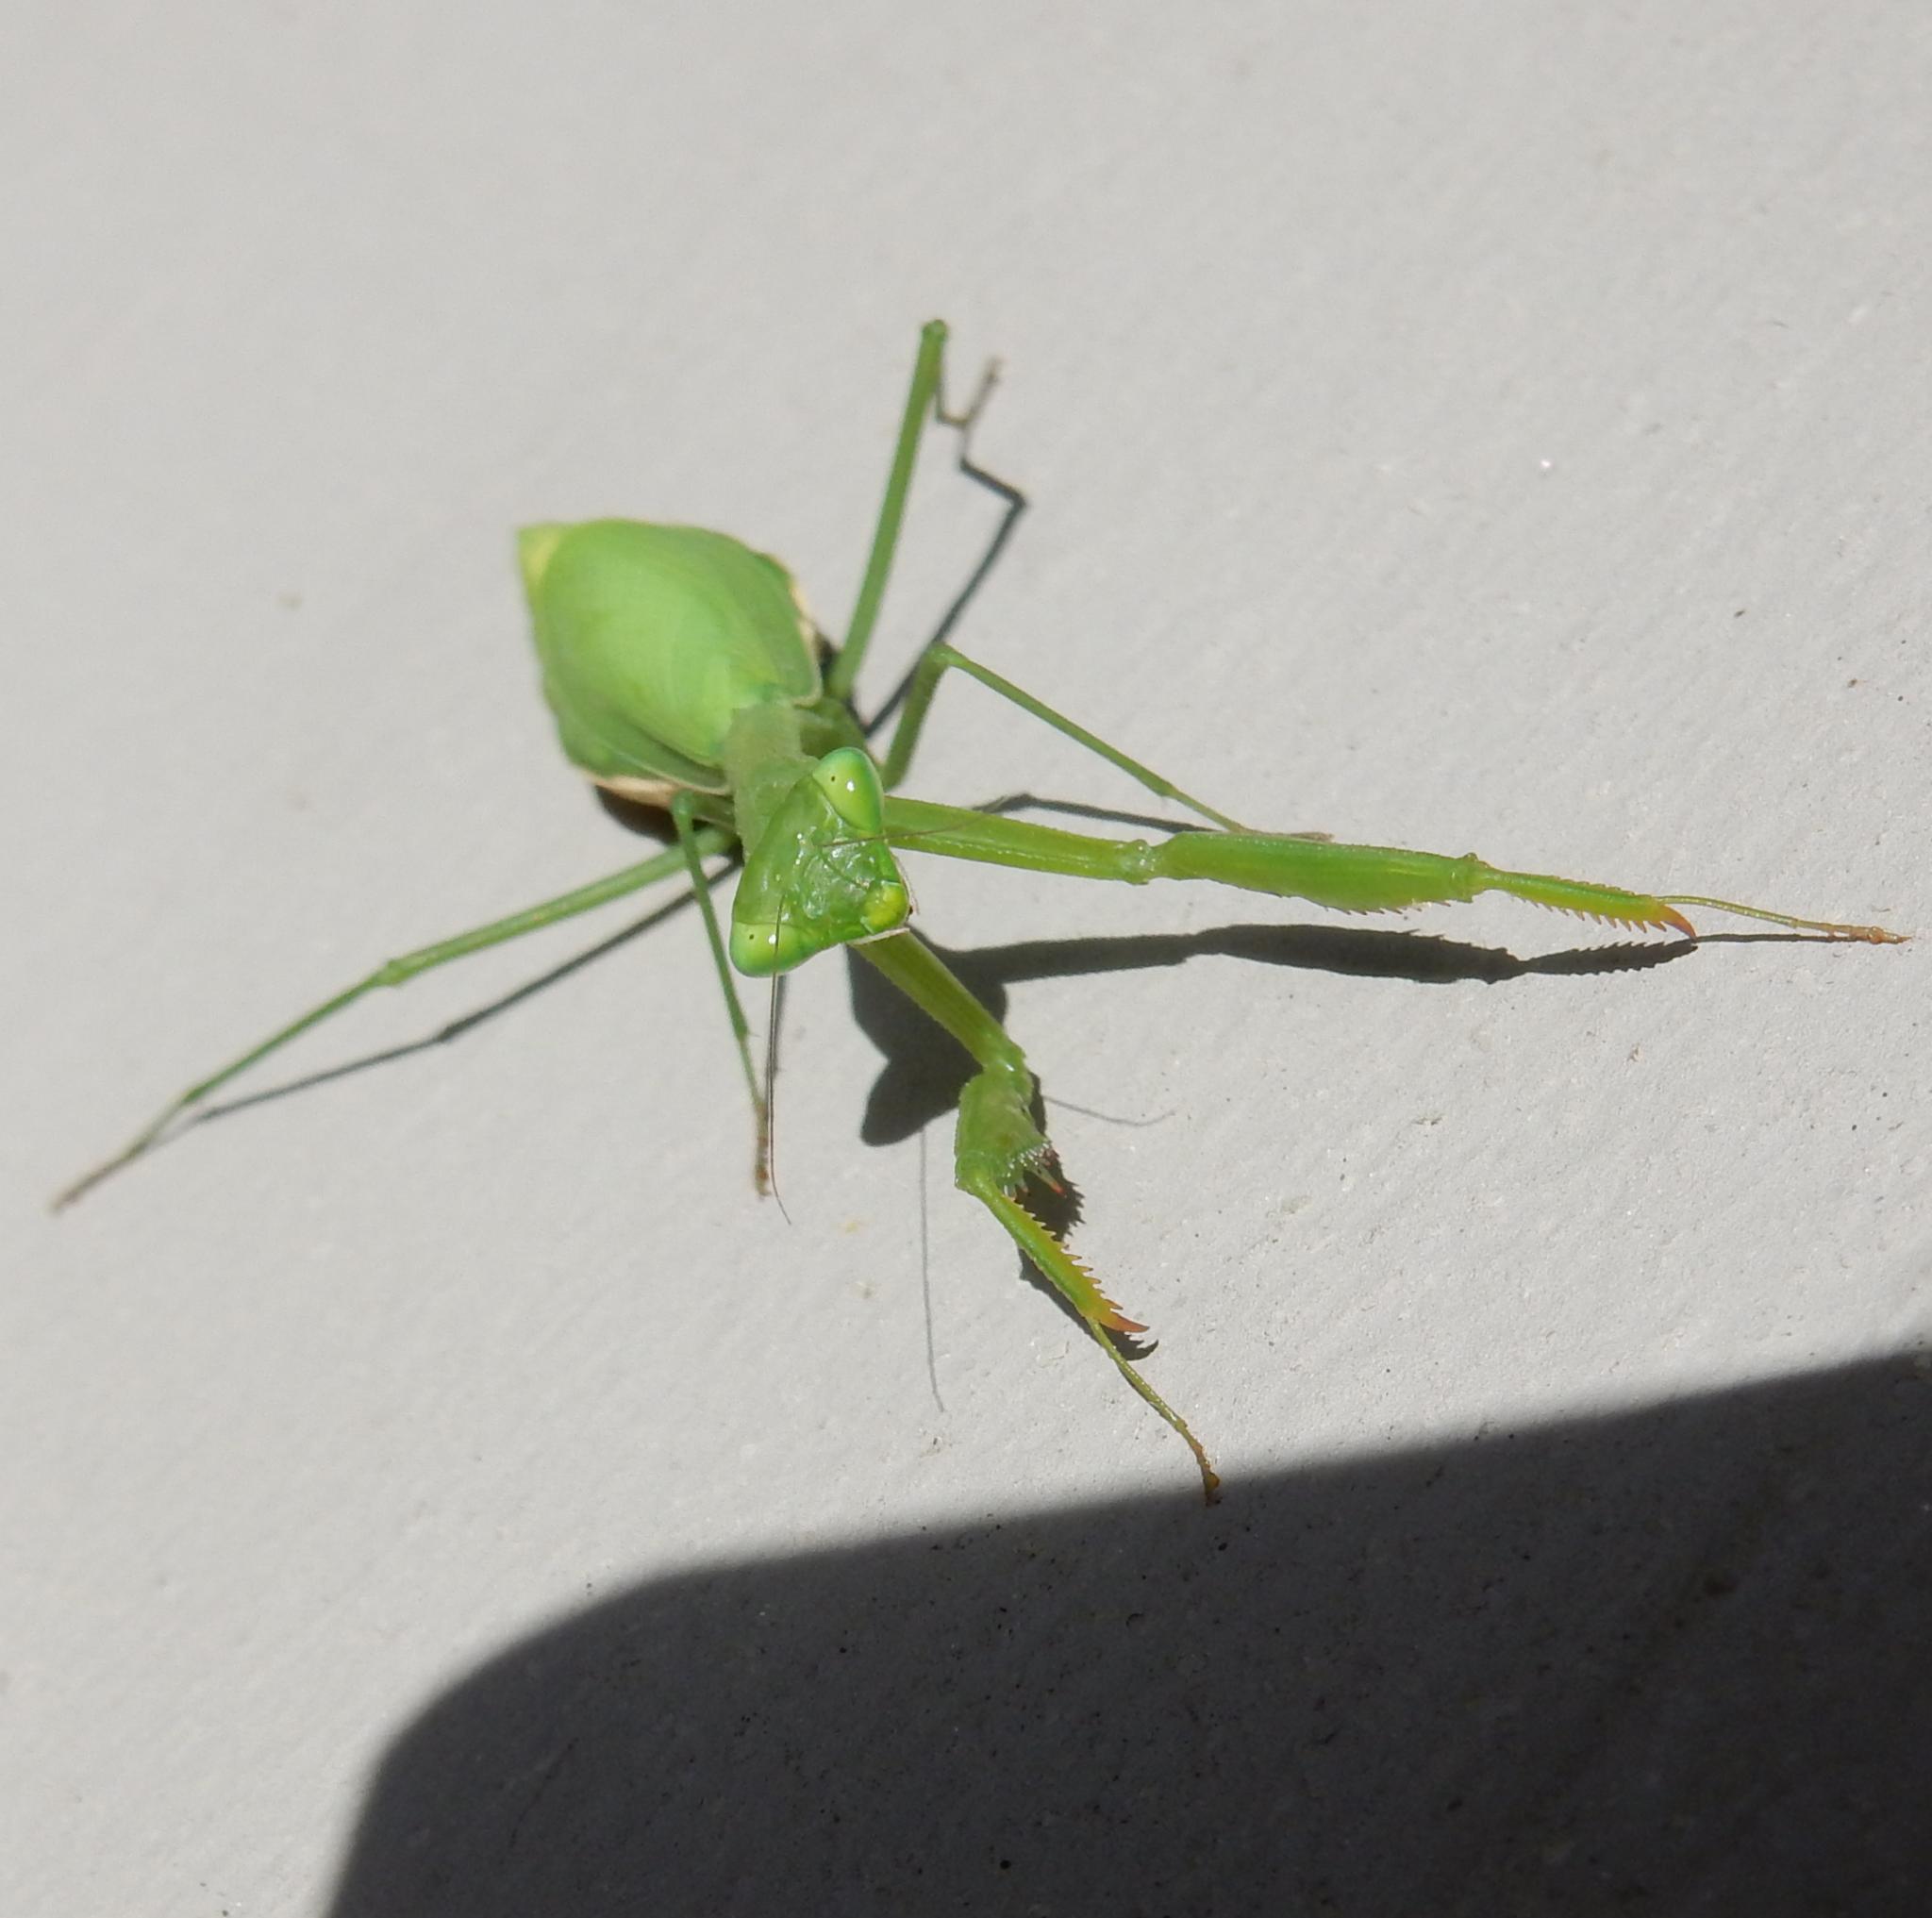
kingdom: Animalia
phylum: Arthropoda
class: Insecta
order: Mantodea
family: Miomantidae
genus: Miomantis
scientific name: Miomantis caffra
